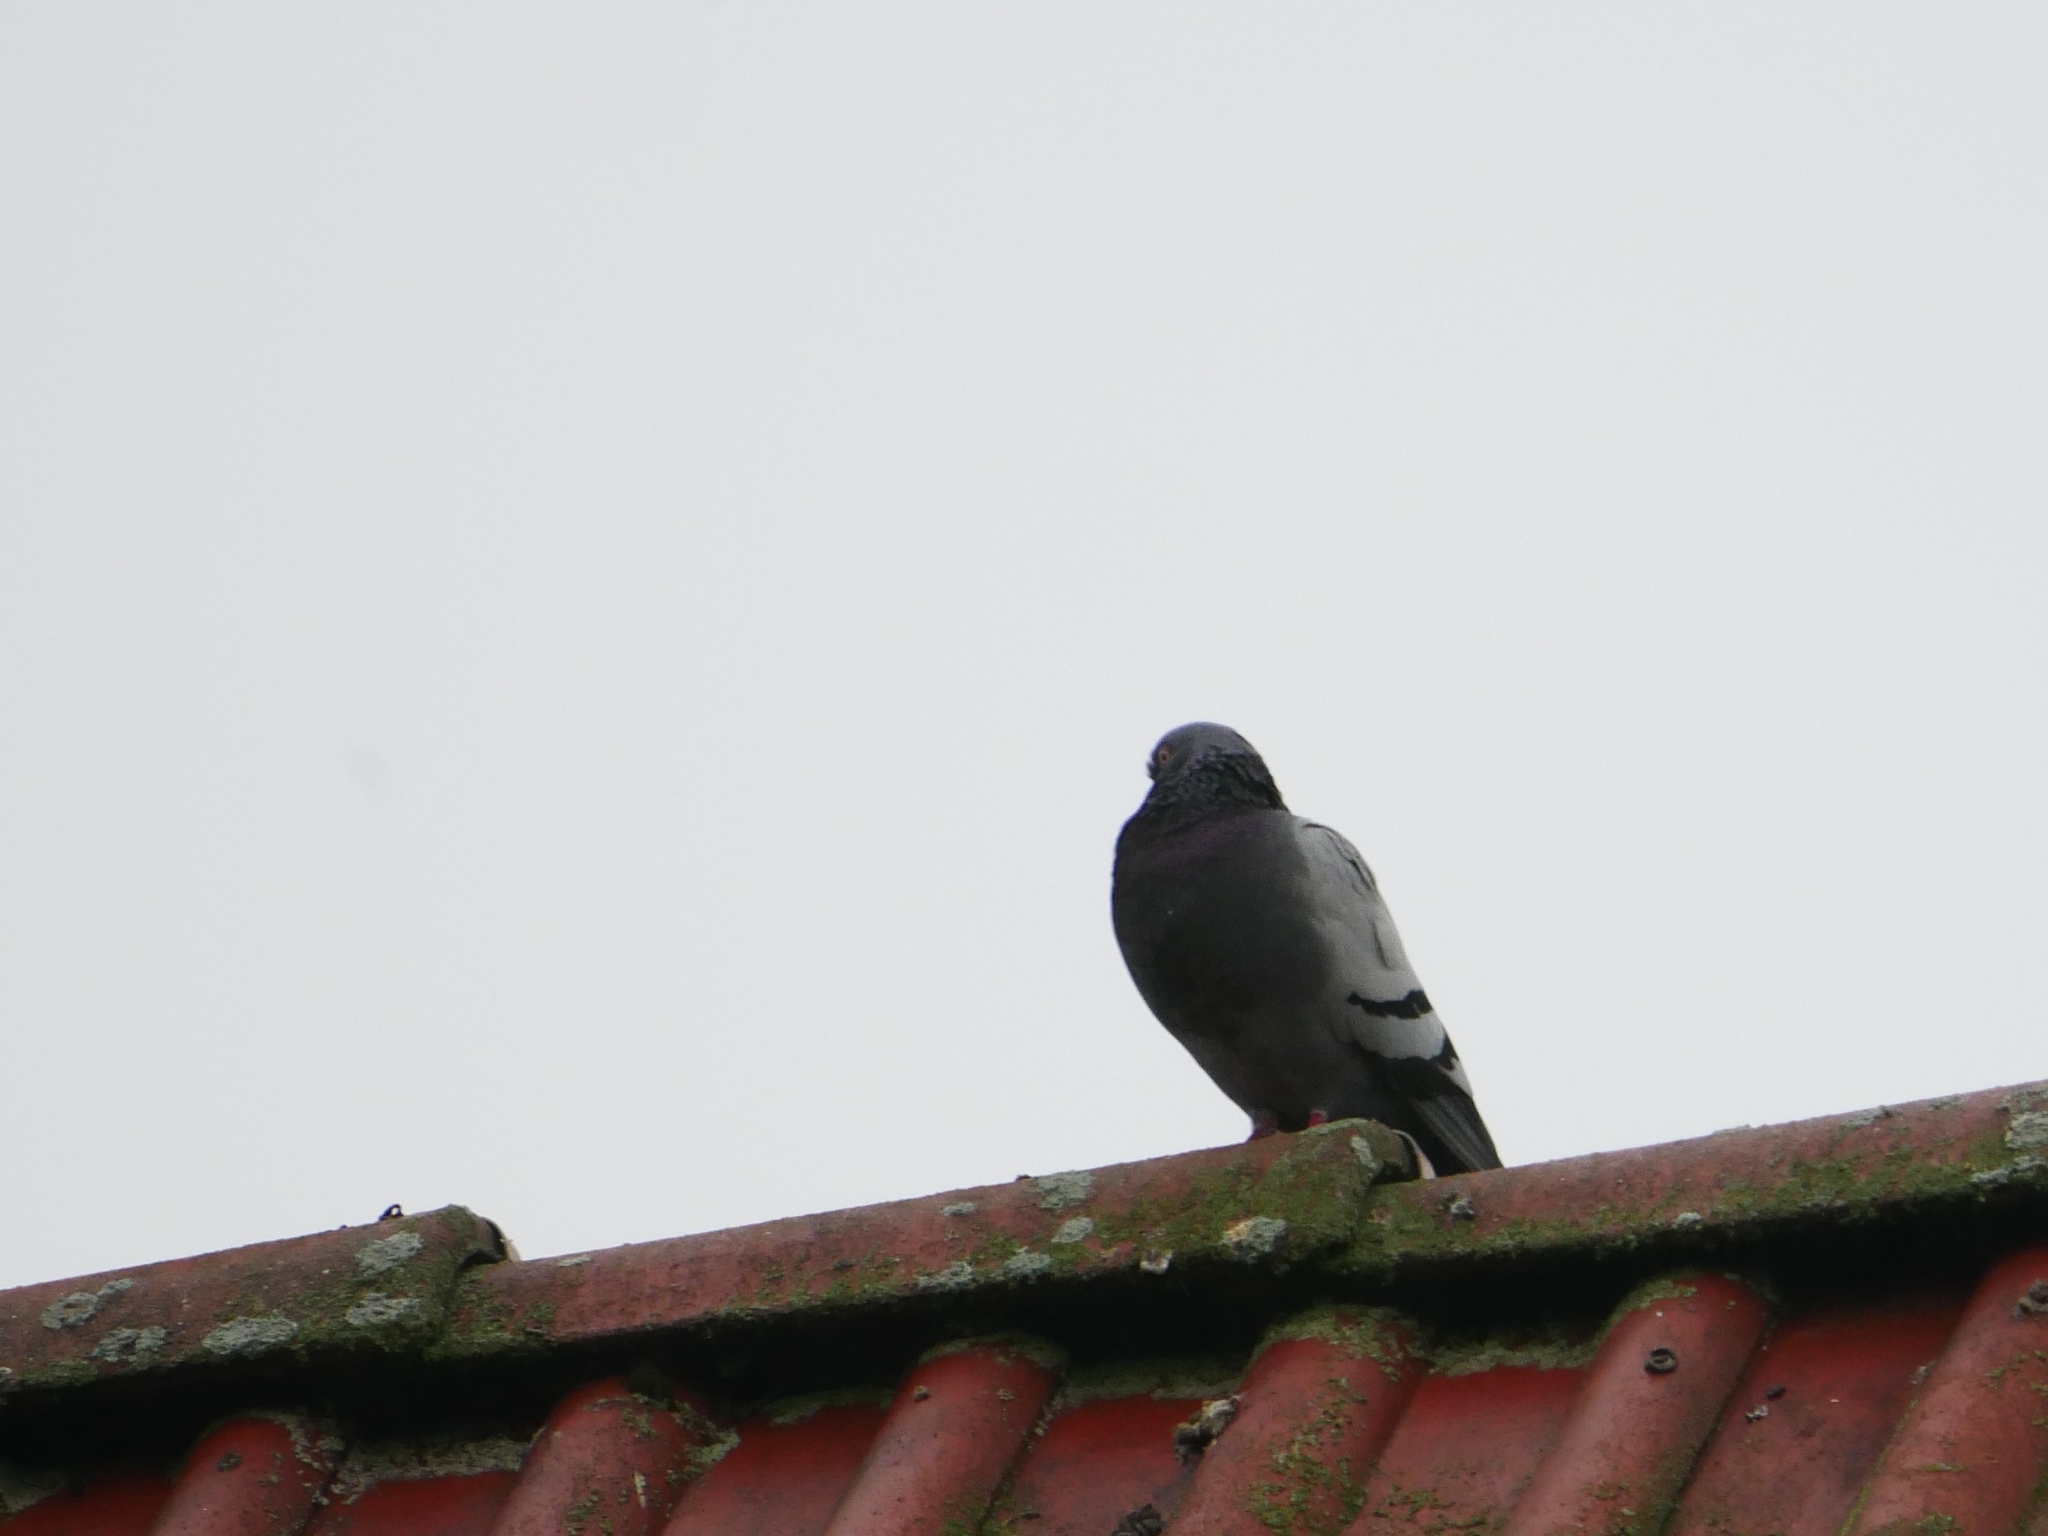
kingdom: Animalia
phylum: Chordata
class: Aves
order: Columbiformes
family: Columbidae
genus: Columba
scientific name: Columba livia
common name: Rock pigeon
